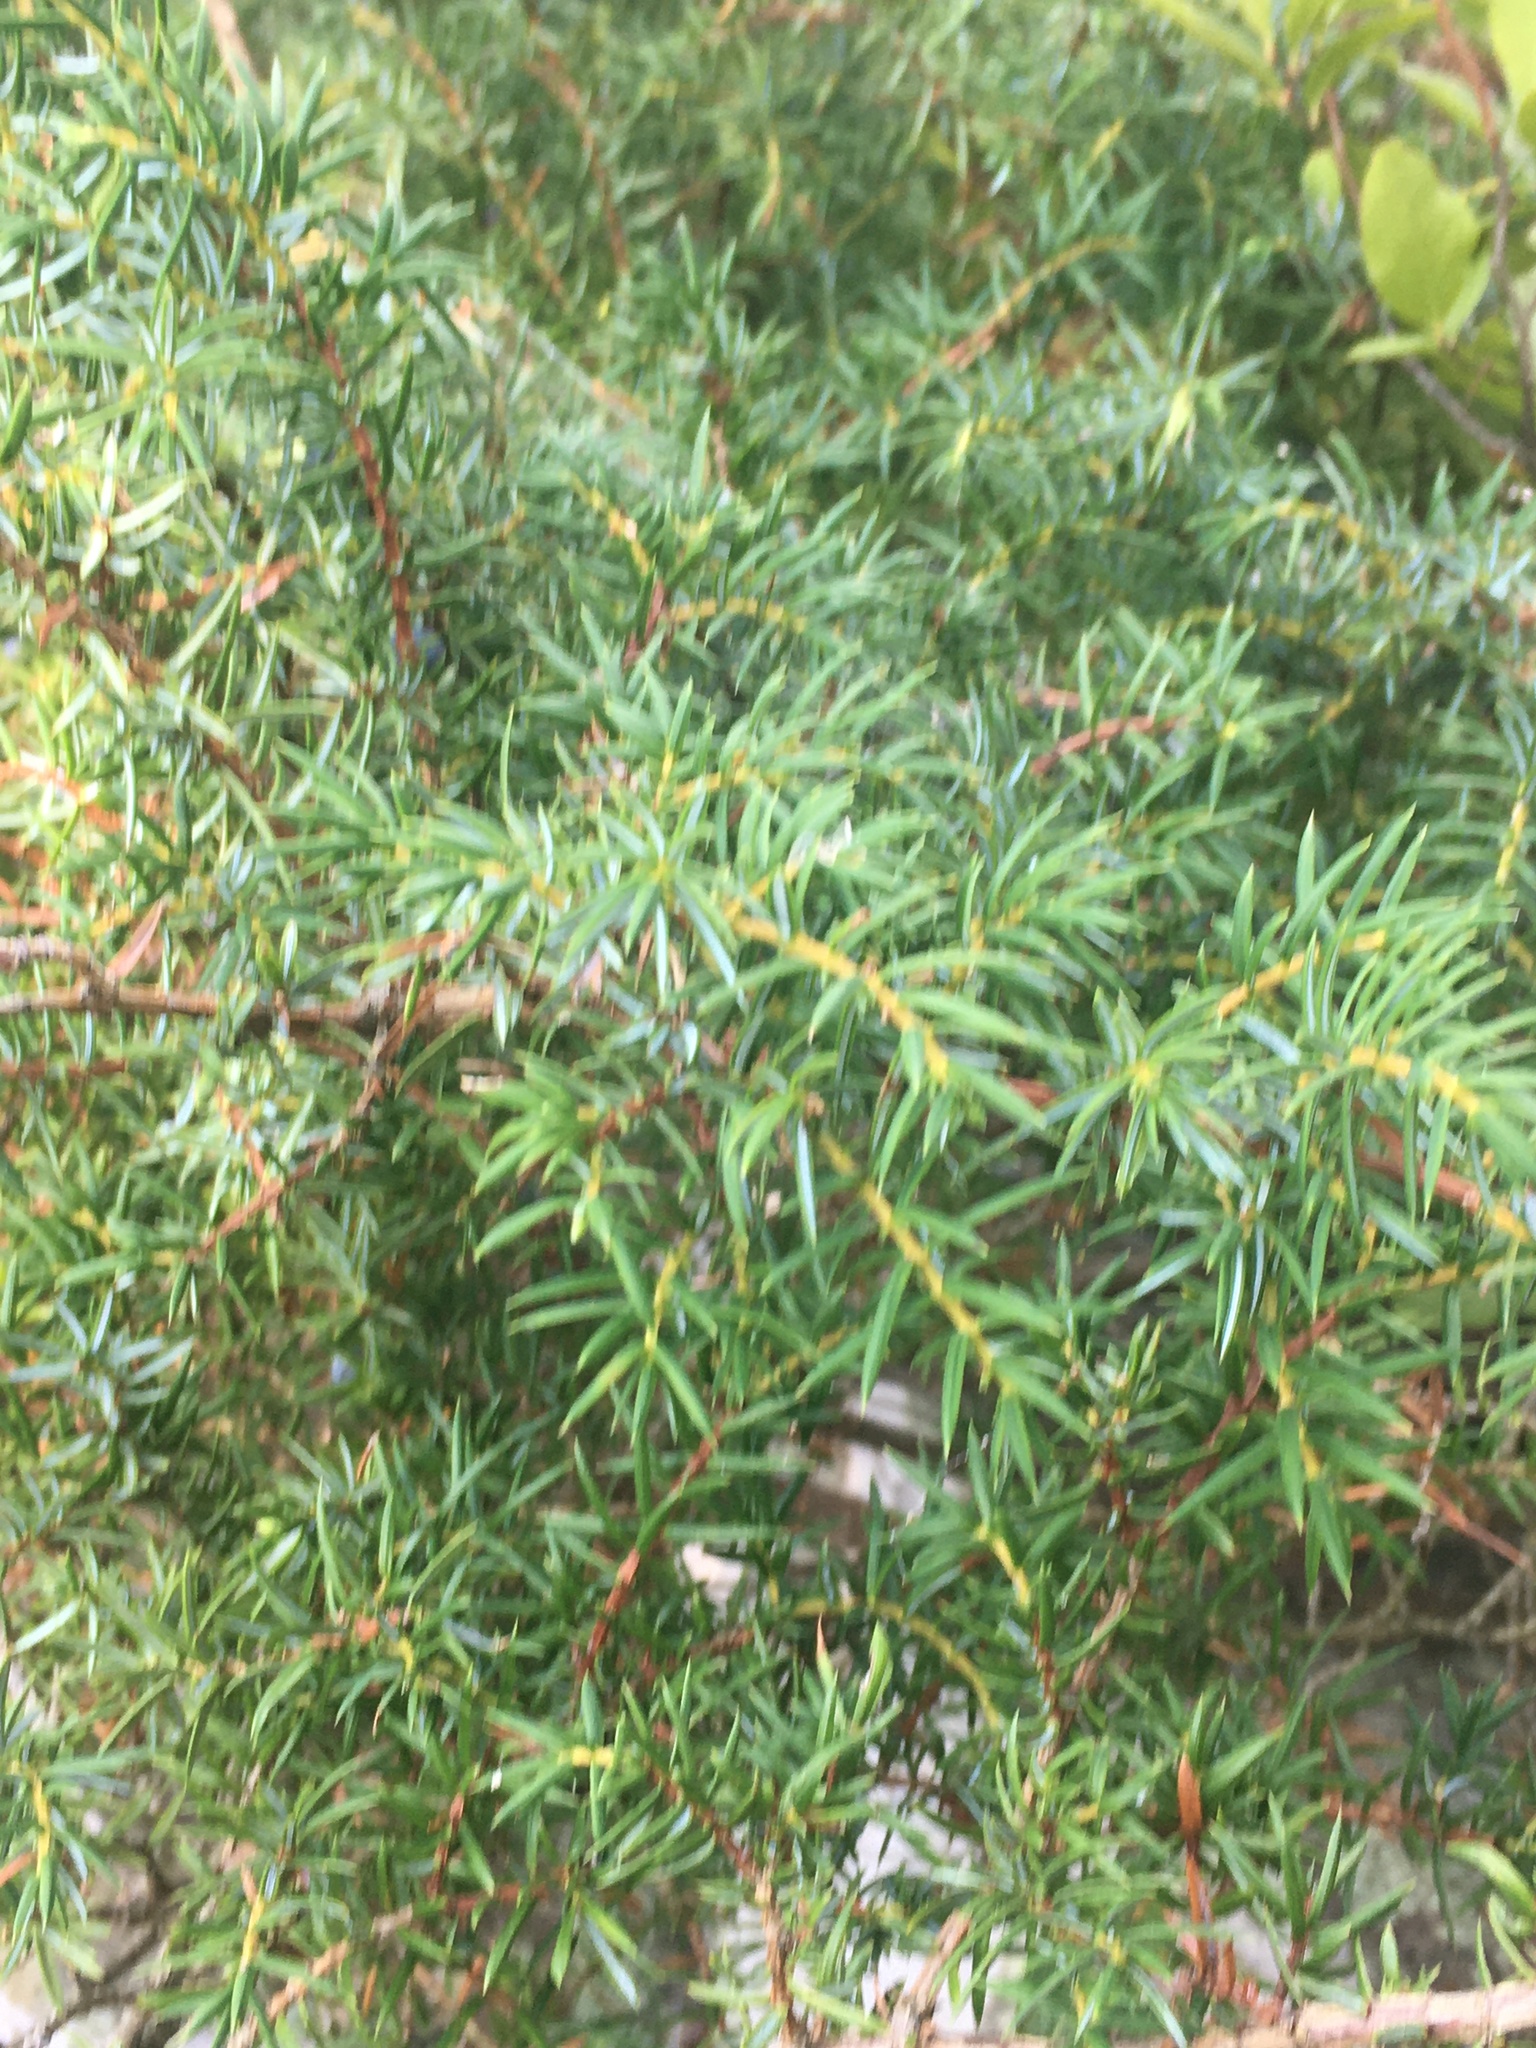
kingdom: Plantae
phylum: Tracheophyta
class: Pinopsida
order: Pinales
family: Cupressaceae
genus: Juniperus
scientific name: Juniperus communis
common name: Common juniper
